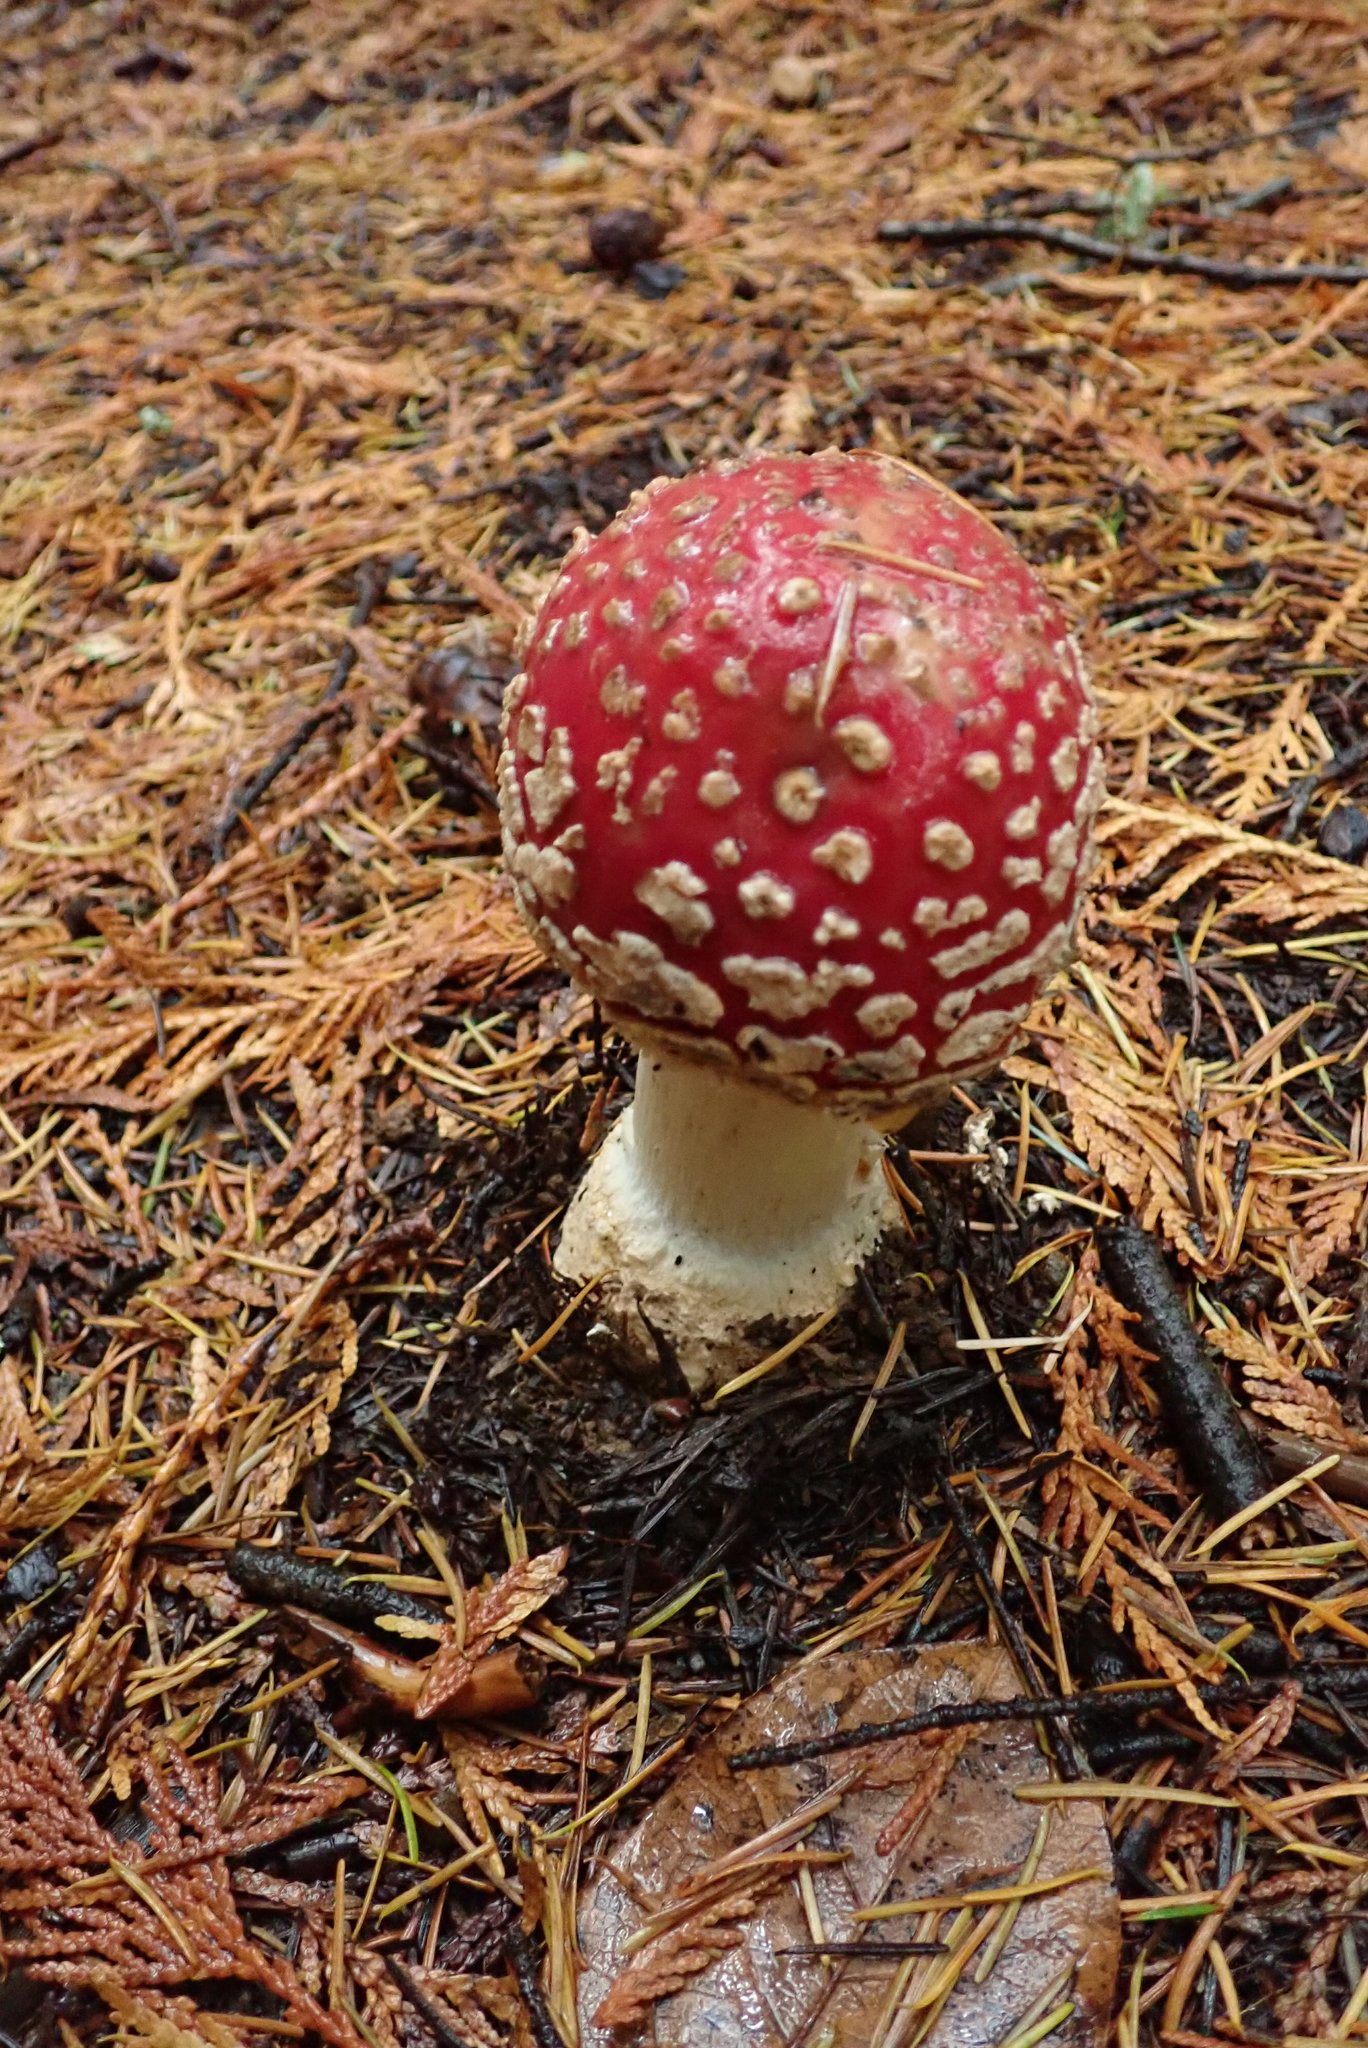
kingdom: Fungi
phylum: Basidiomycota
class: Agaricomycetes
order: Agaricales
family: Amanitaceae
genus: Amanita
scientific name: Amanita muscaria
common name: Fly agaric
